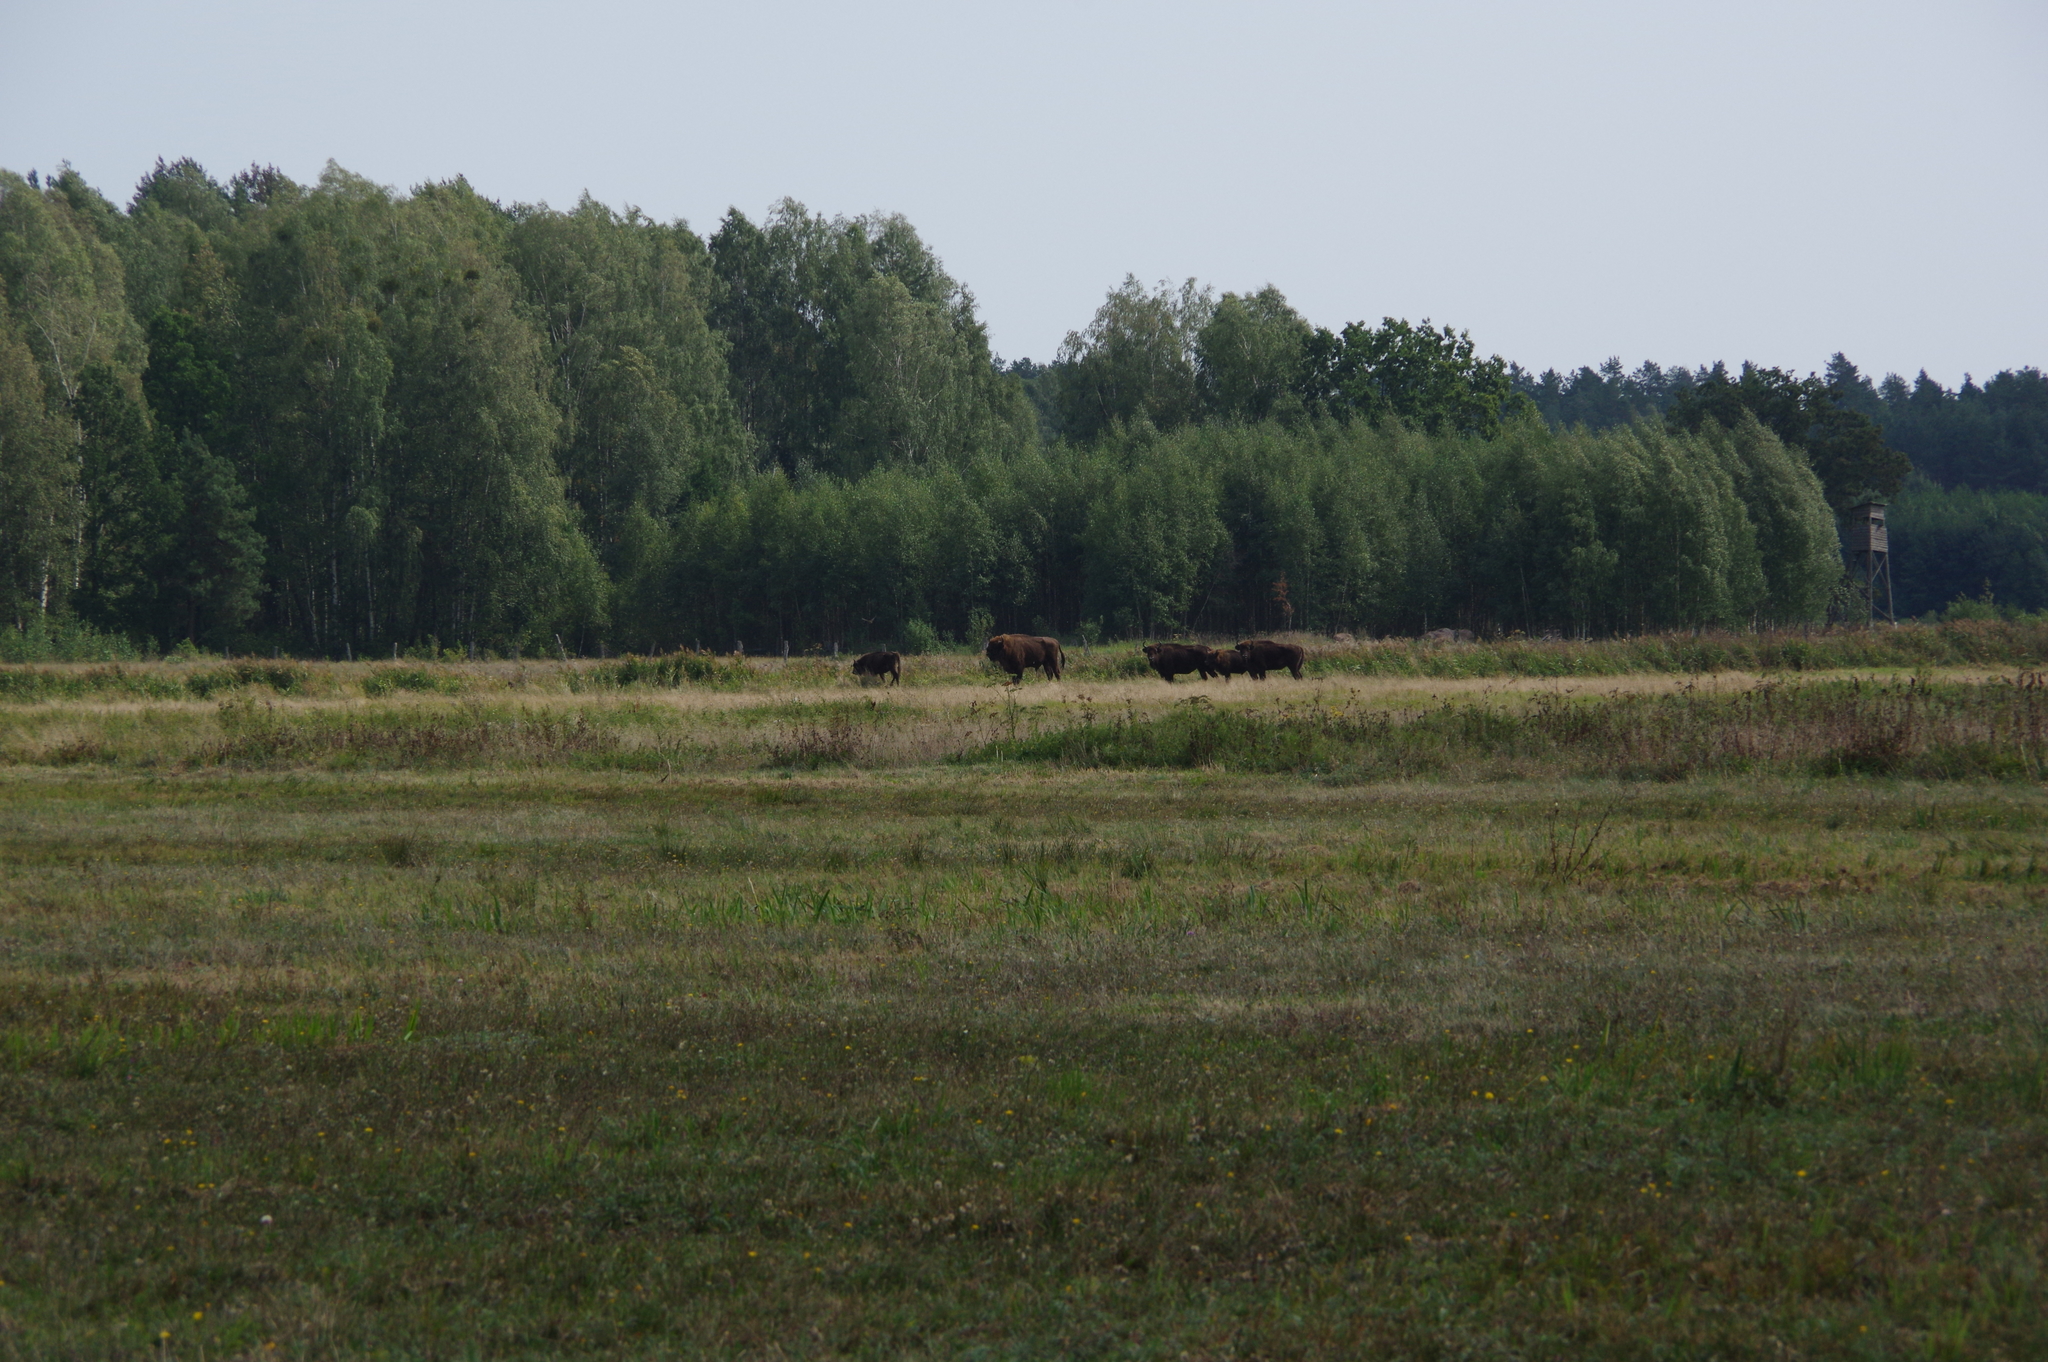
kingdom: Animalia
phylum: Chordata
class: Mammalia
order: Artiodactyla
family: Bovidae
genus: Bison
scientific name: Bison bonasus
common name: European bison
